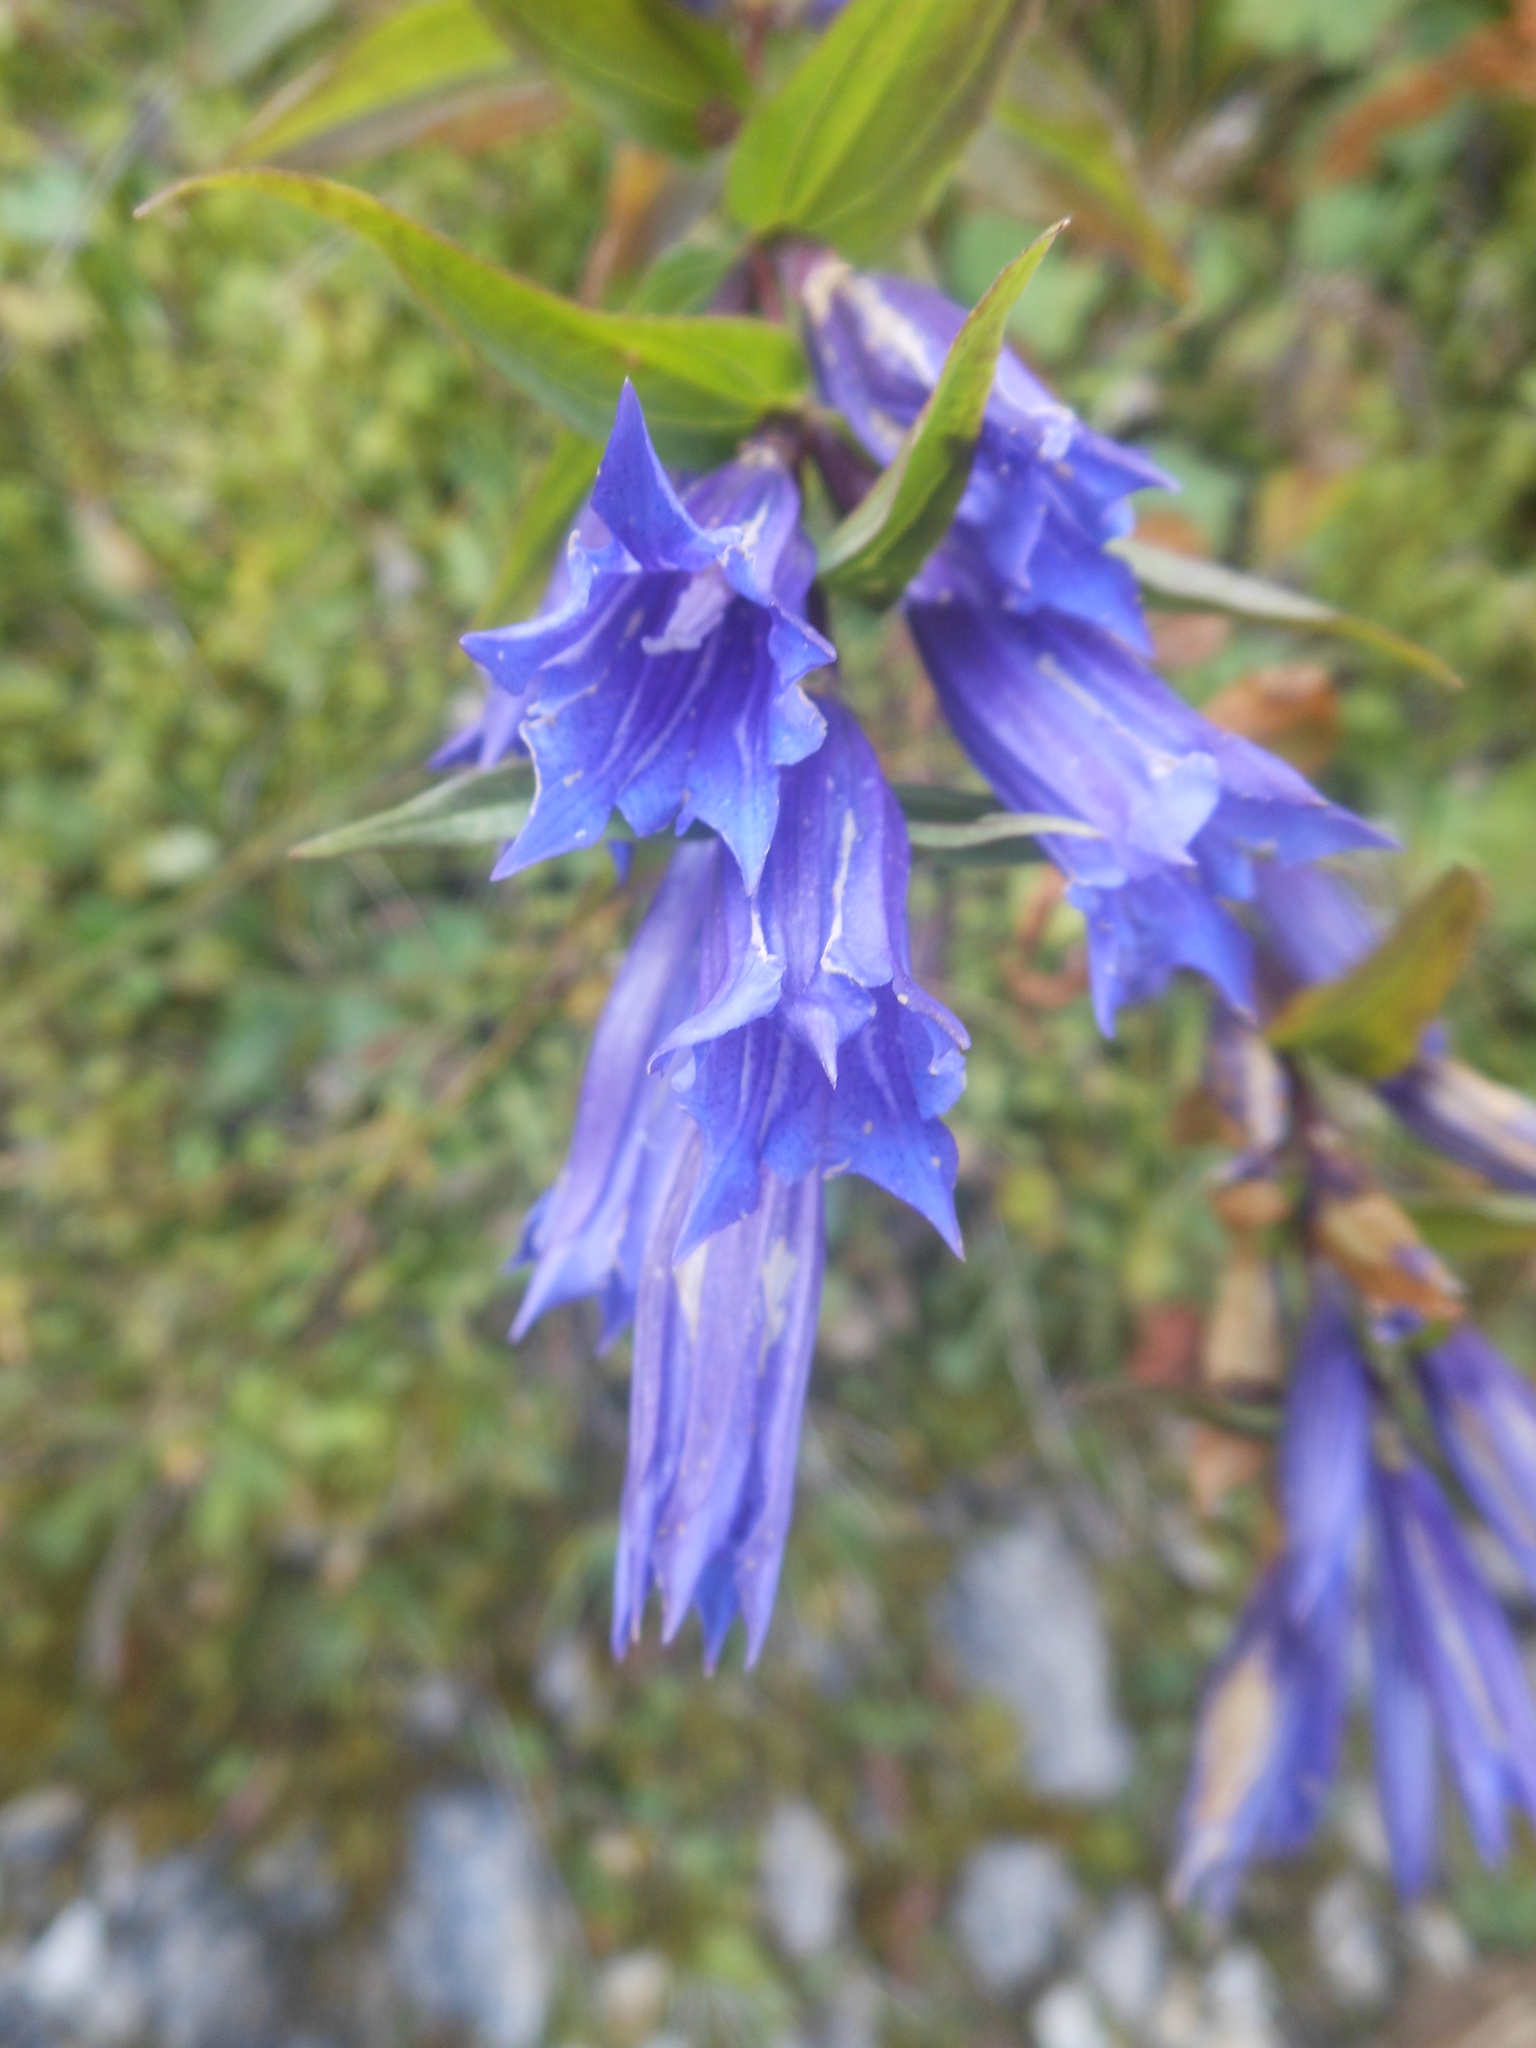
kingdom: Plantae
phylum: Tracheophyta
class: Magnoliopsida
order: Gentianales
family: Gentianaceae
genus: Gentiana
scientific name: Gentiana asclepiadea
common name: Willow gentian
